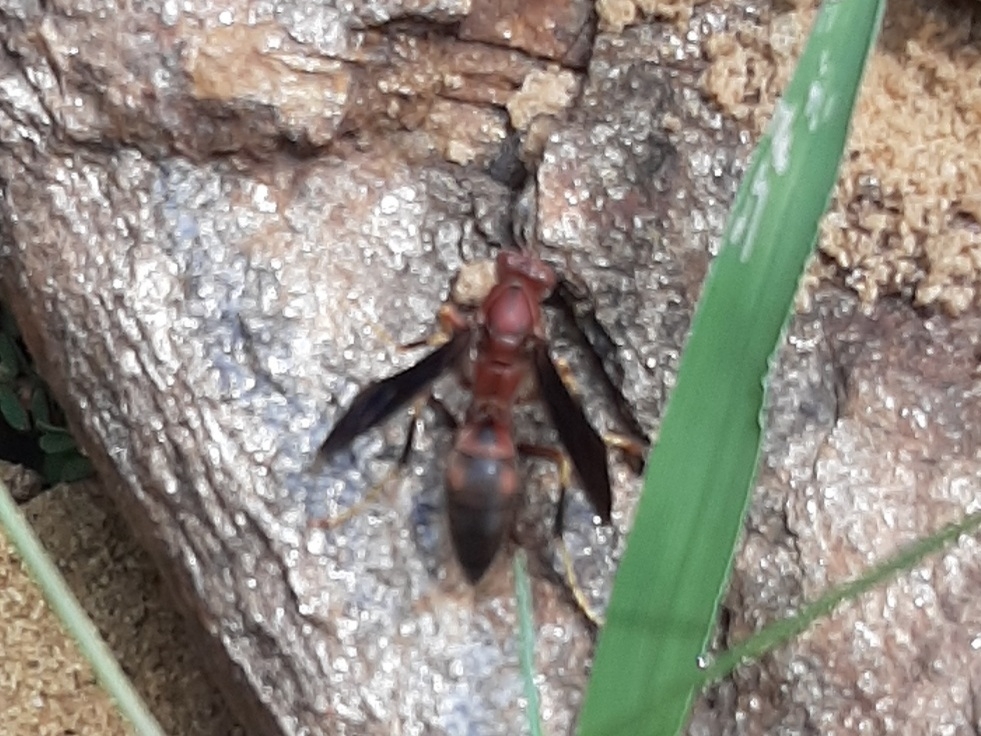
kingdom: Animalia
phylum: Arthropoda
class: Insecta
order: Hymenoptera
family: Eumenidae
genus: Polistes
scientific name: Polistes metricus
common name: Metric paper wasp
